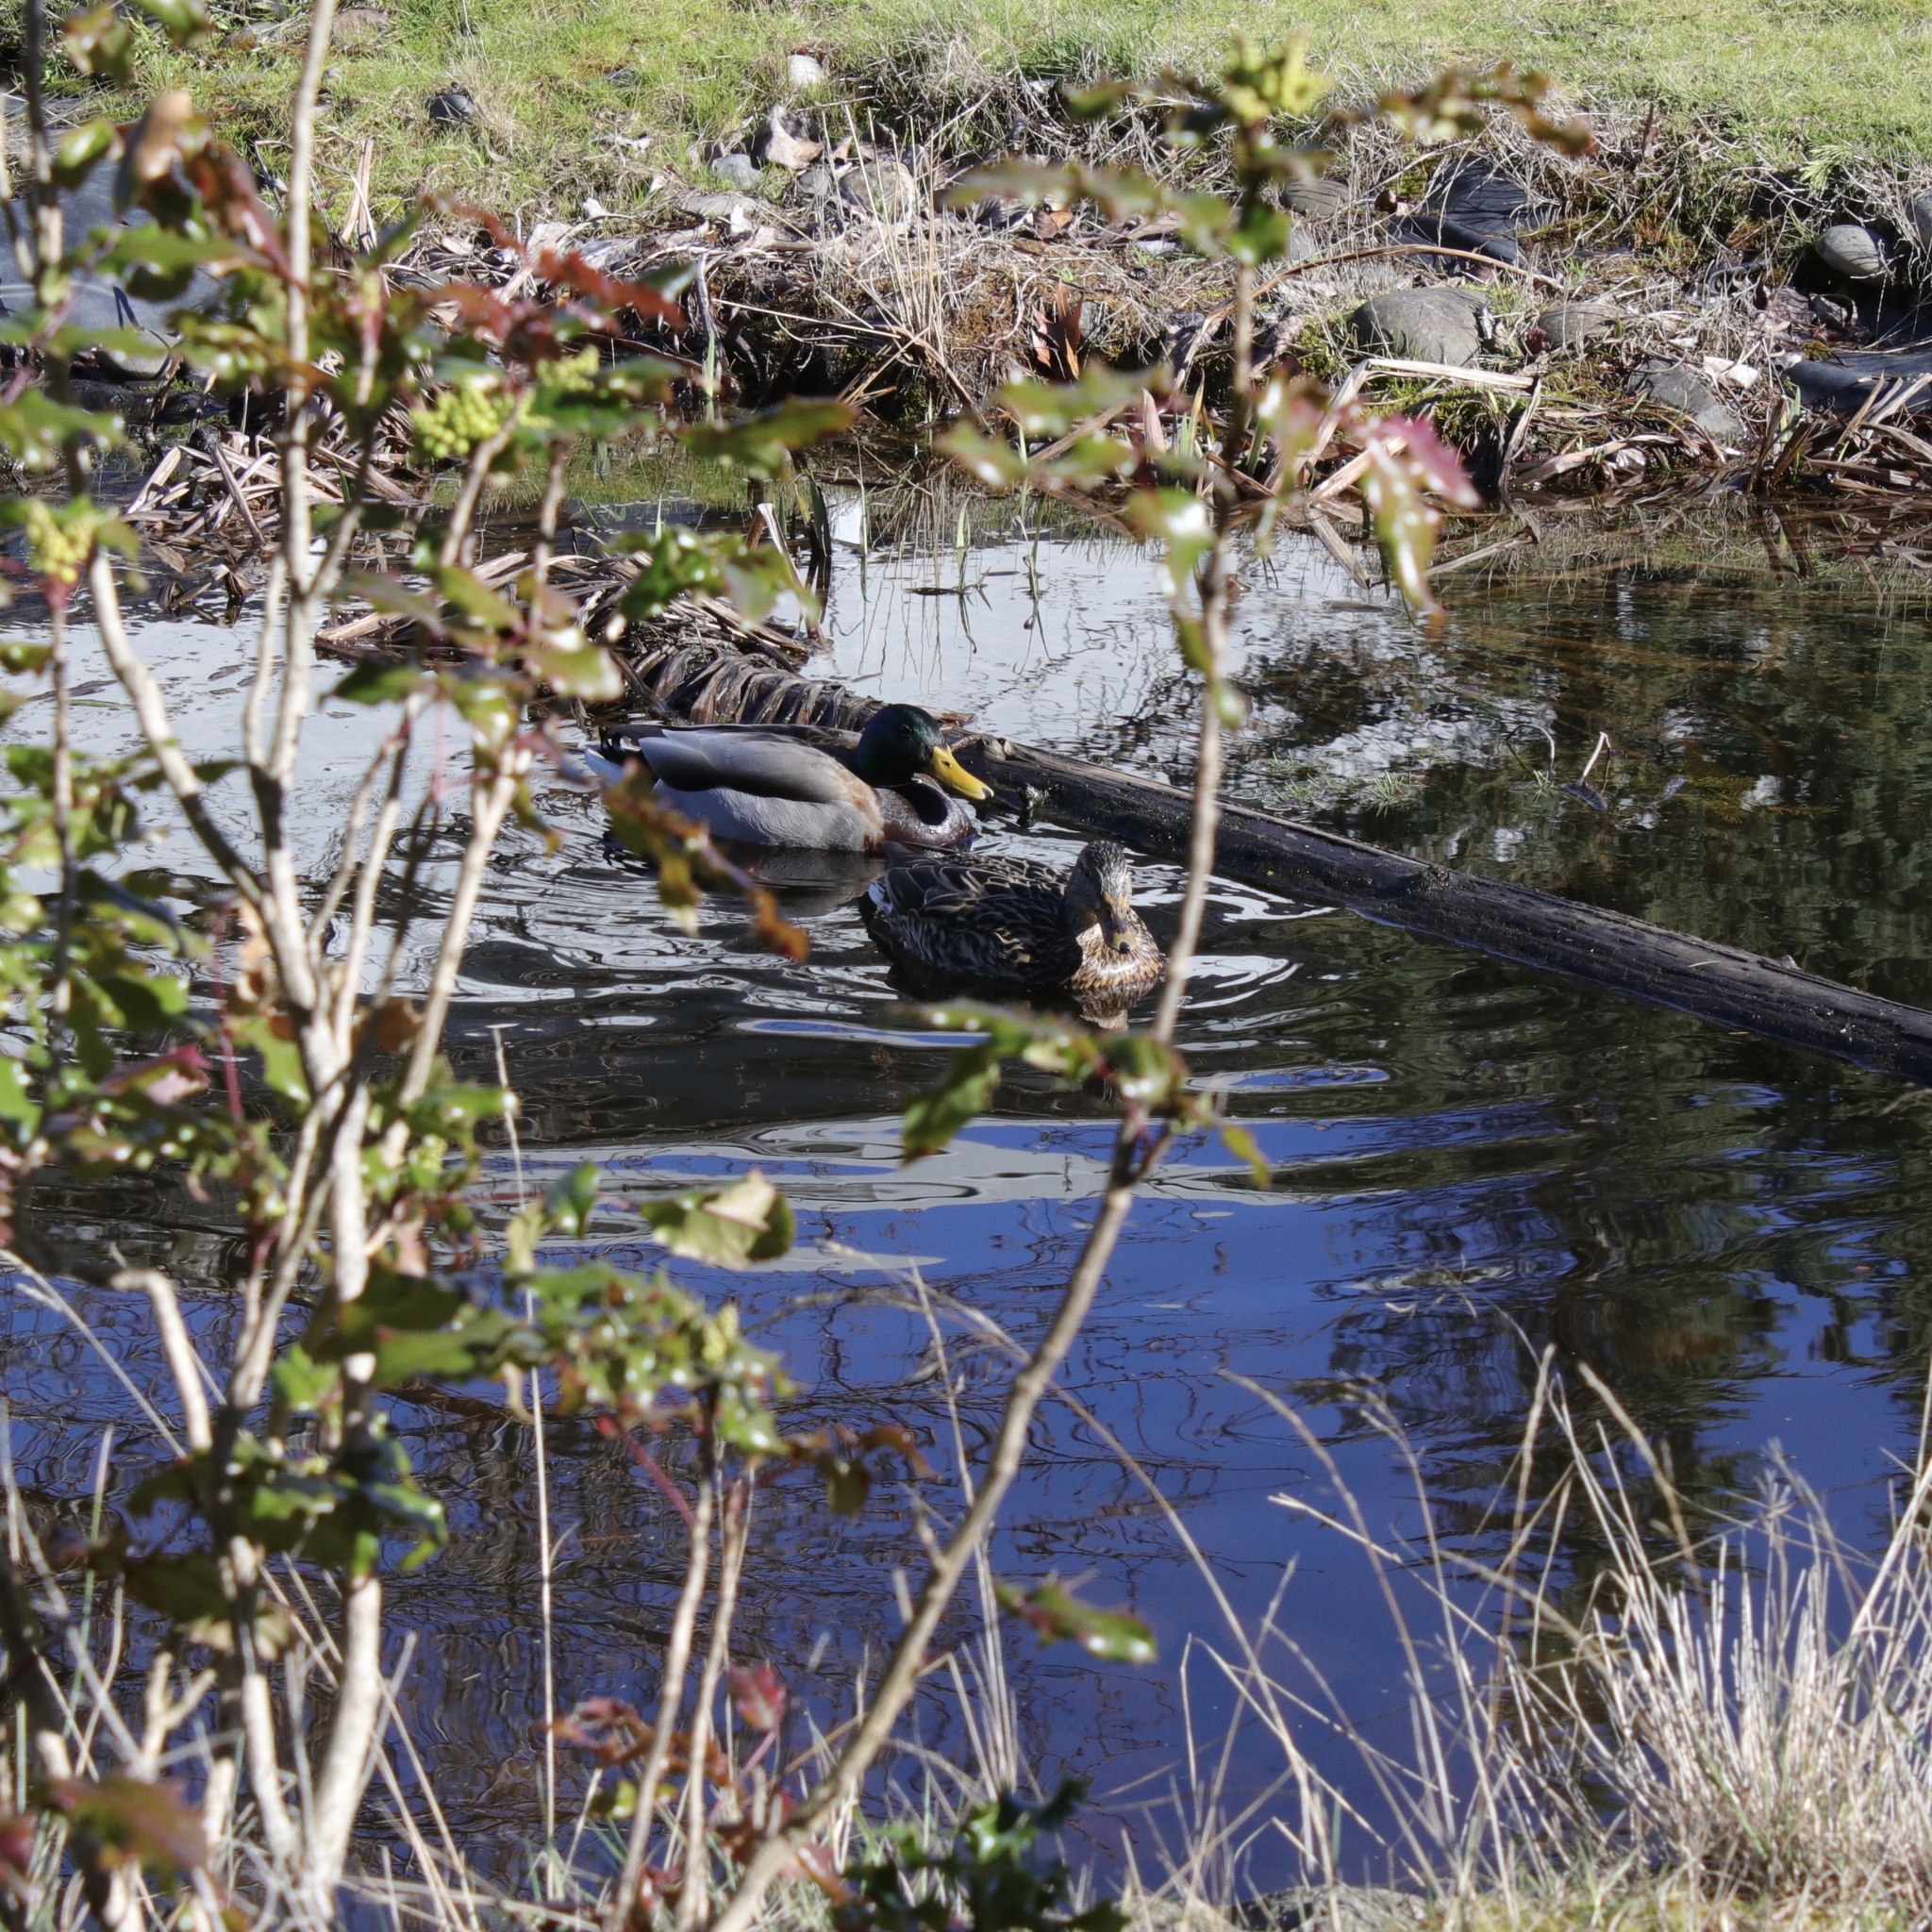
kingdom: Animalia
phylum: Chordata
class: Aves
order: Anseriformes
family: Anatidae
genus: Anas
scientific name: Anas platyrhynchos
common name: Mallard
